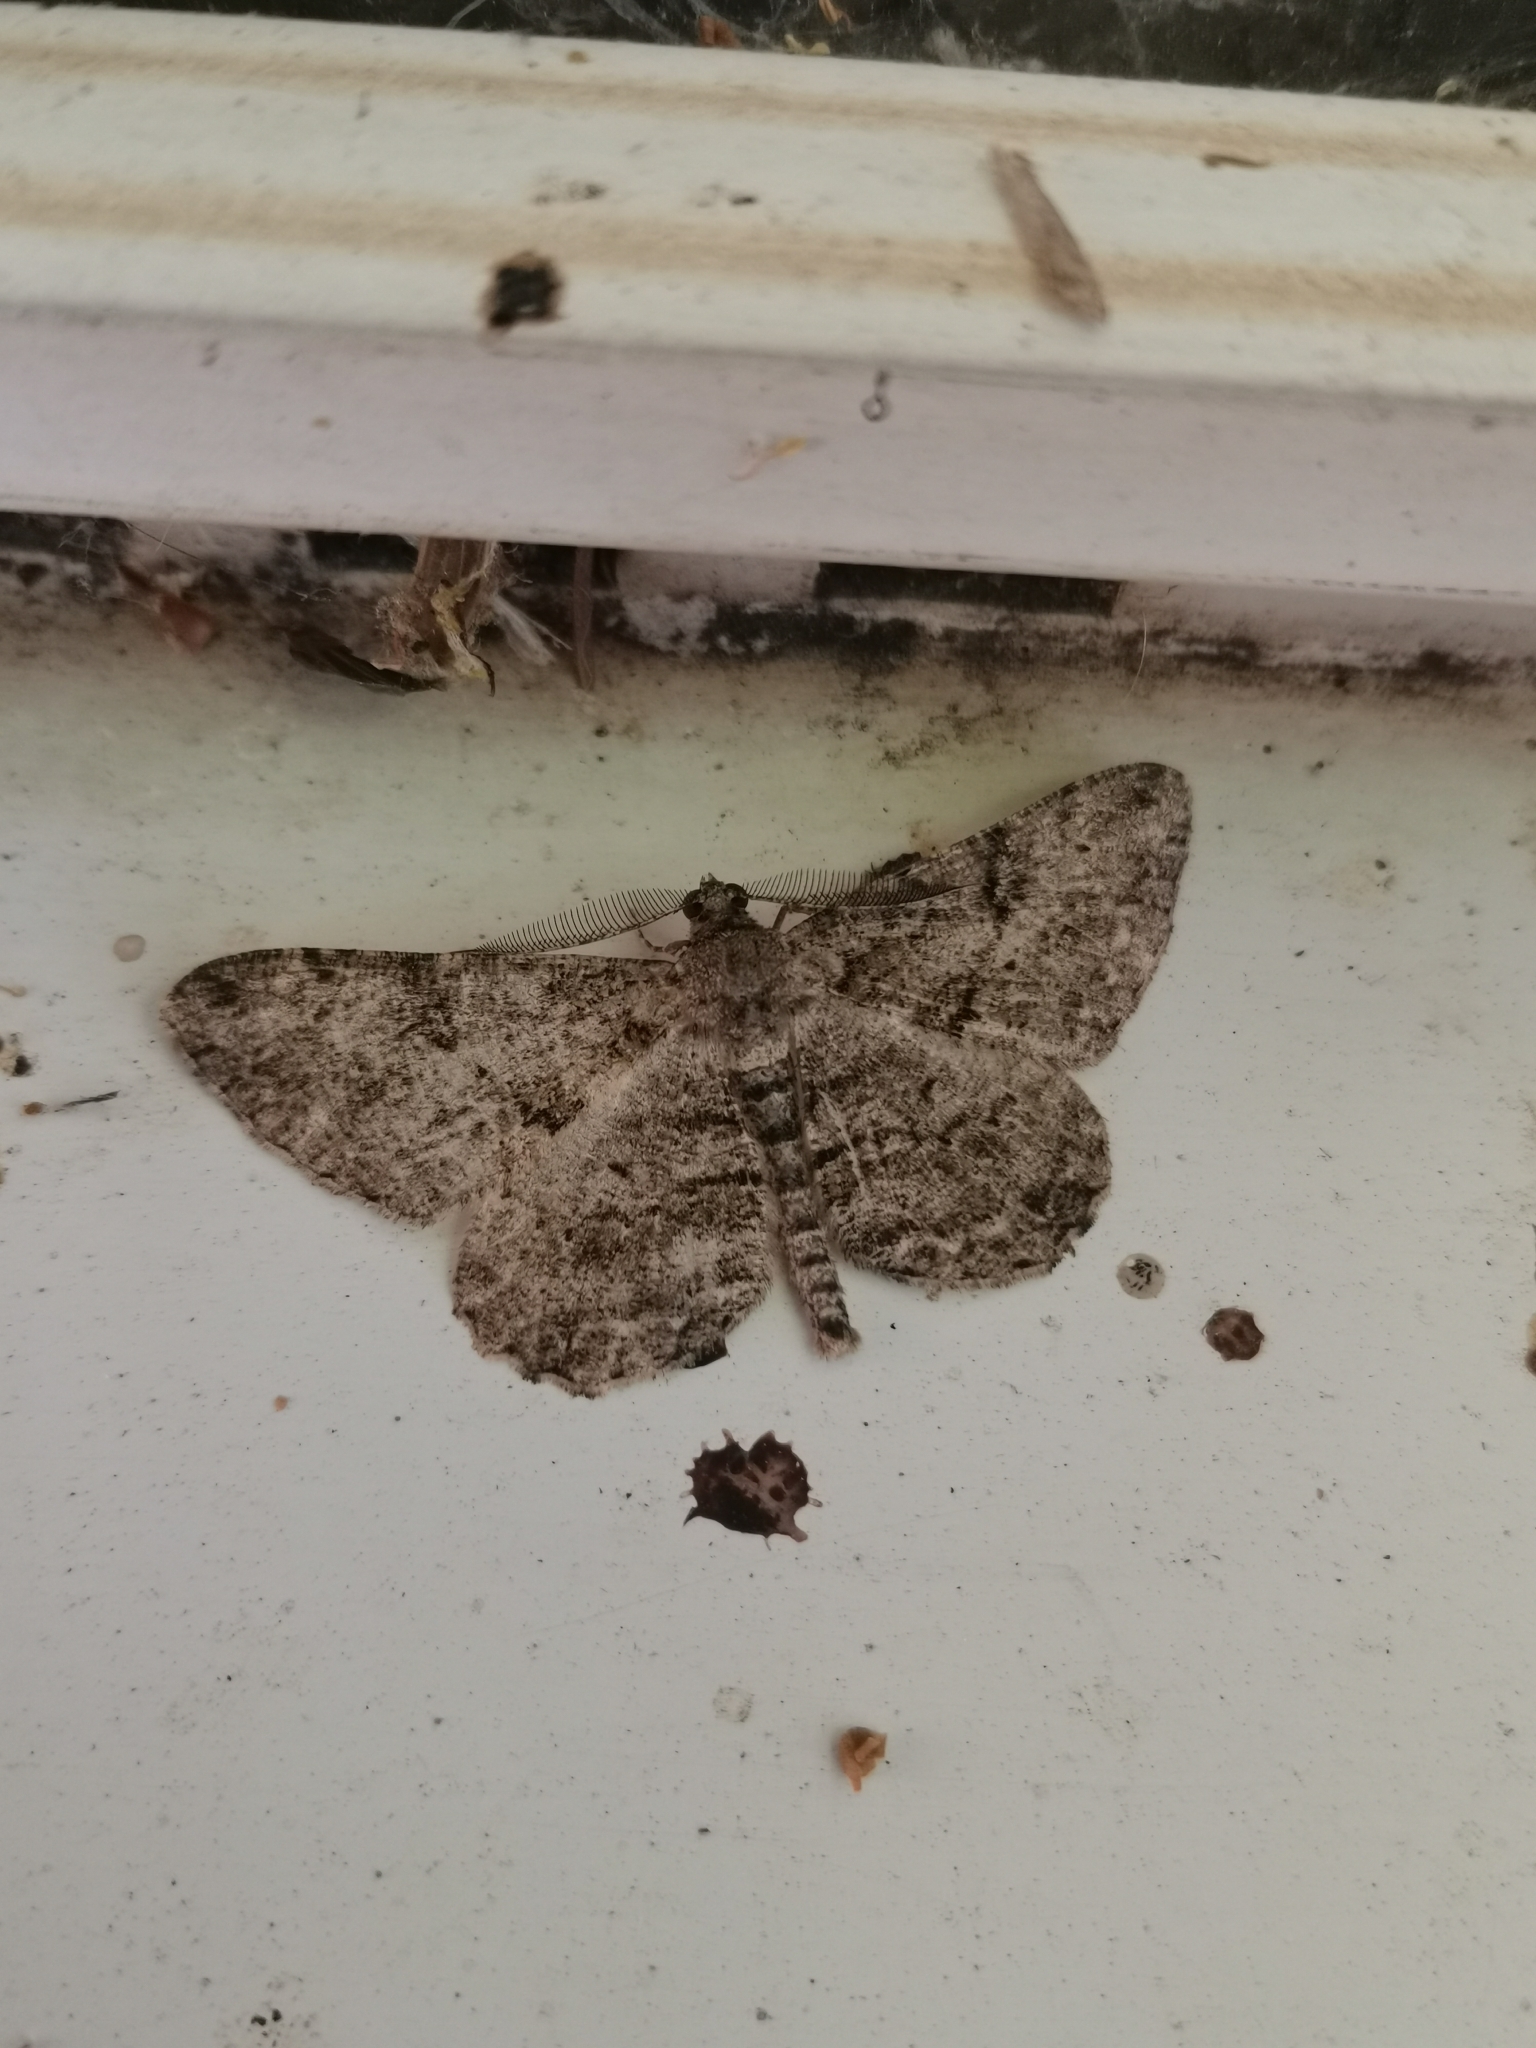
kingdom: Animalia
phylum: Arthropoda
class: Insecta
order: Lepidoptera
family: Geometridae
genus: Peribatodes
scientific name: Peribatodes rhomboidaria
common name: Willow beauty
